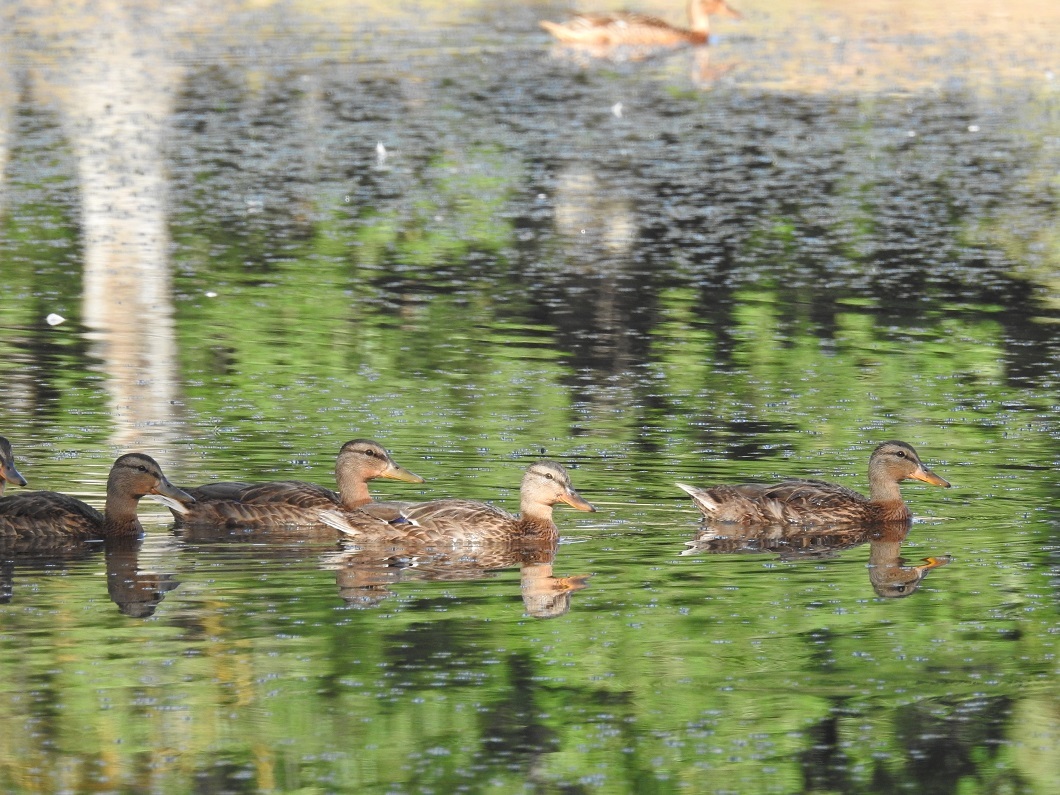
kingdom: Animalia
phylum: Chordata
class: Aves
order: Anseriformes
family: Anatidae
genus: Anas
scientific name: Anas platyrhynchos
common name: Mallard
